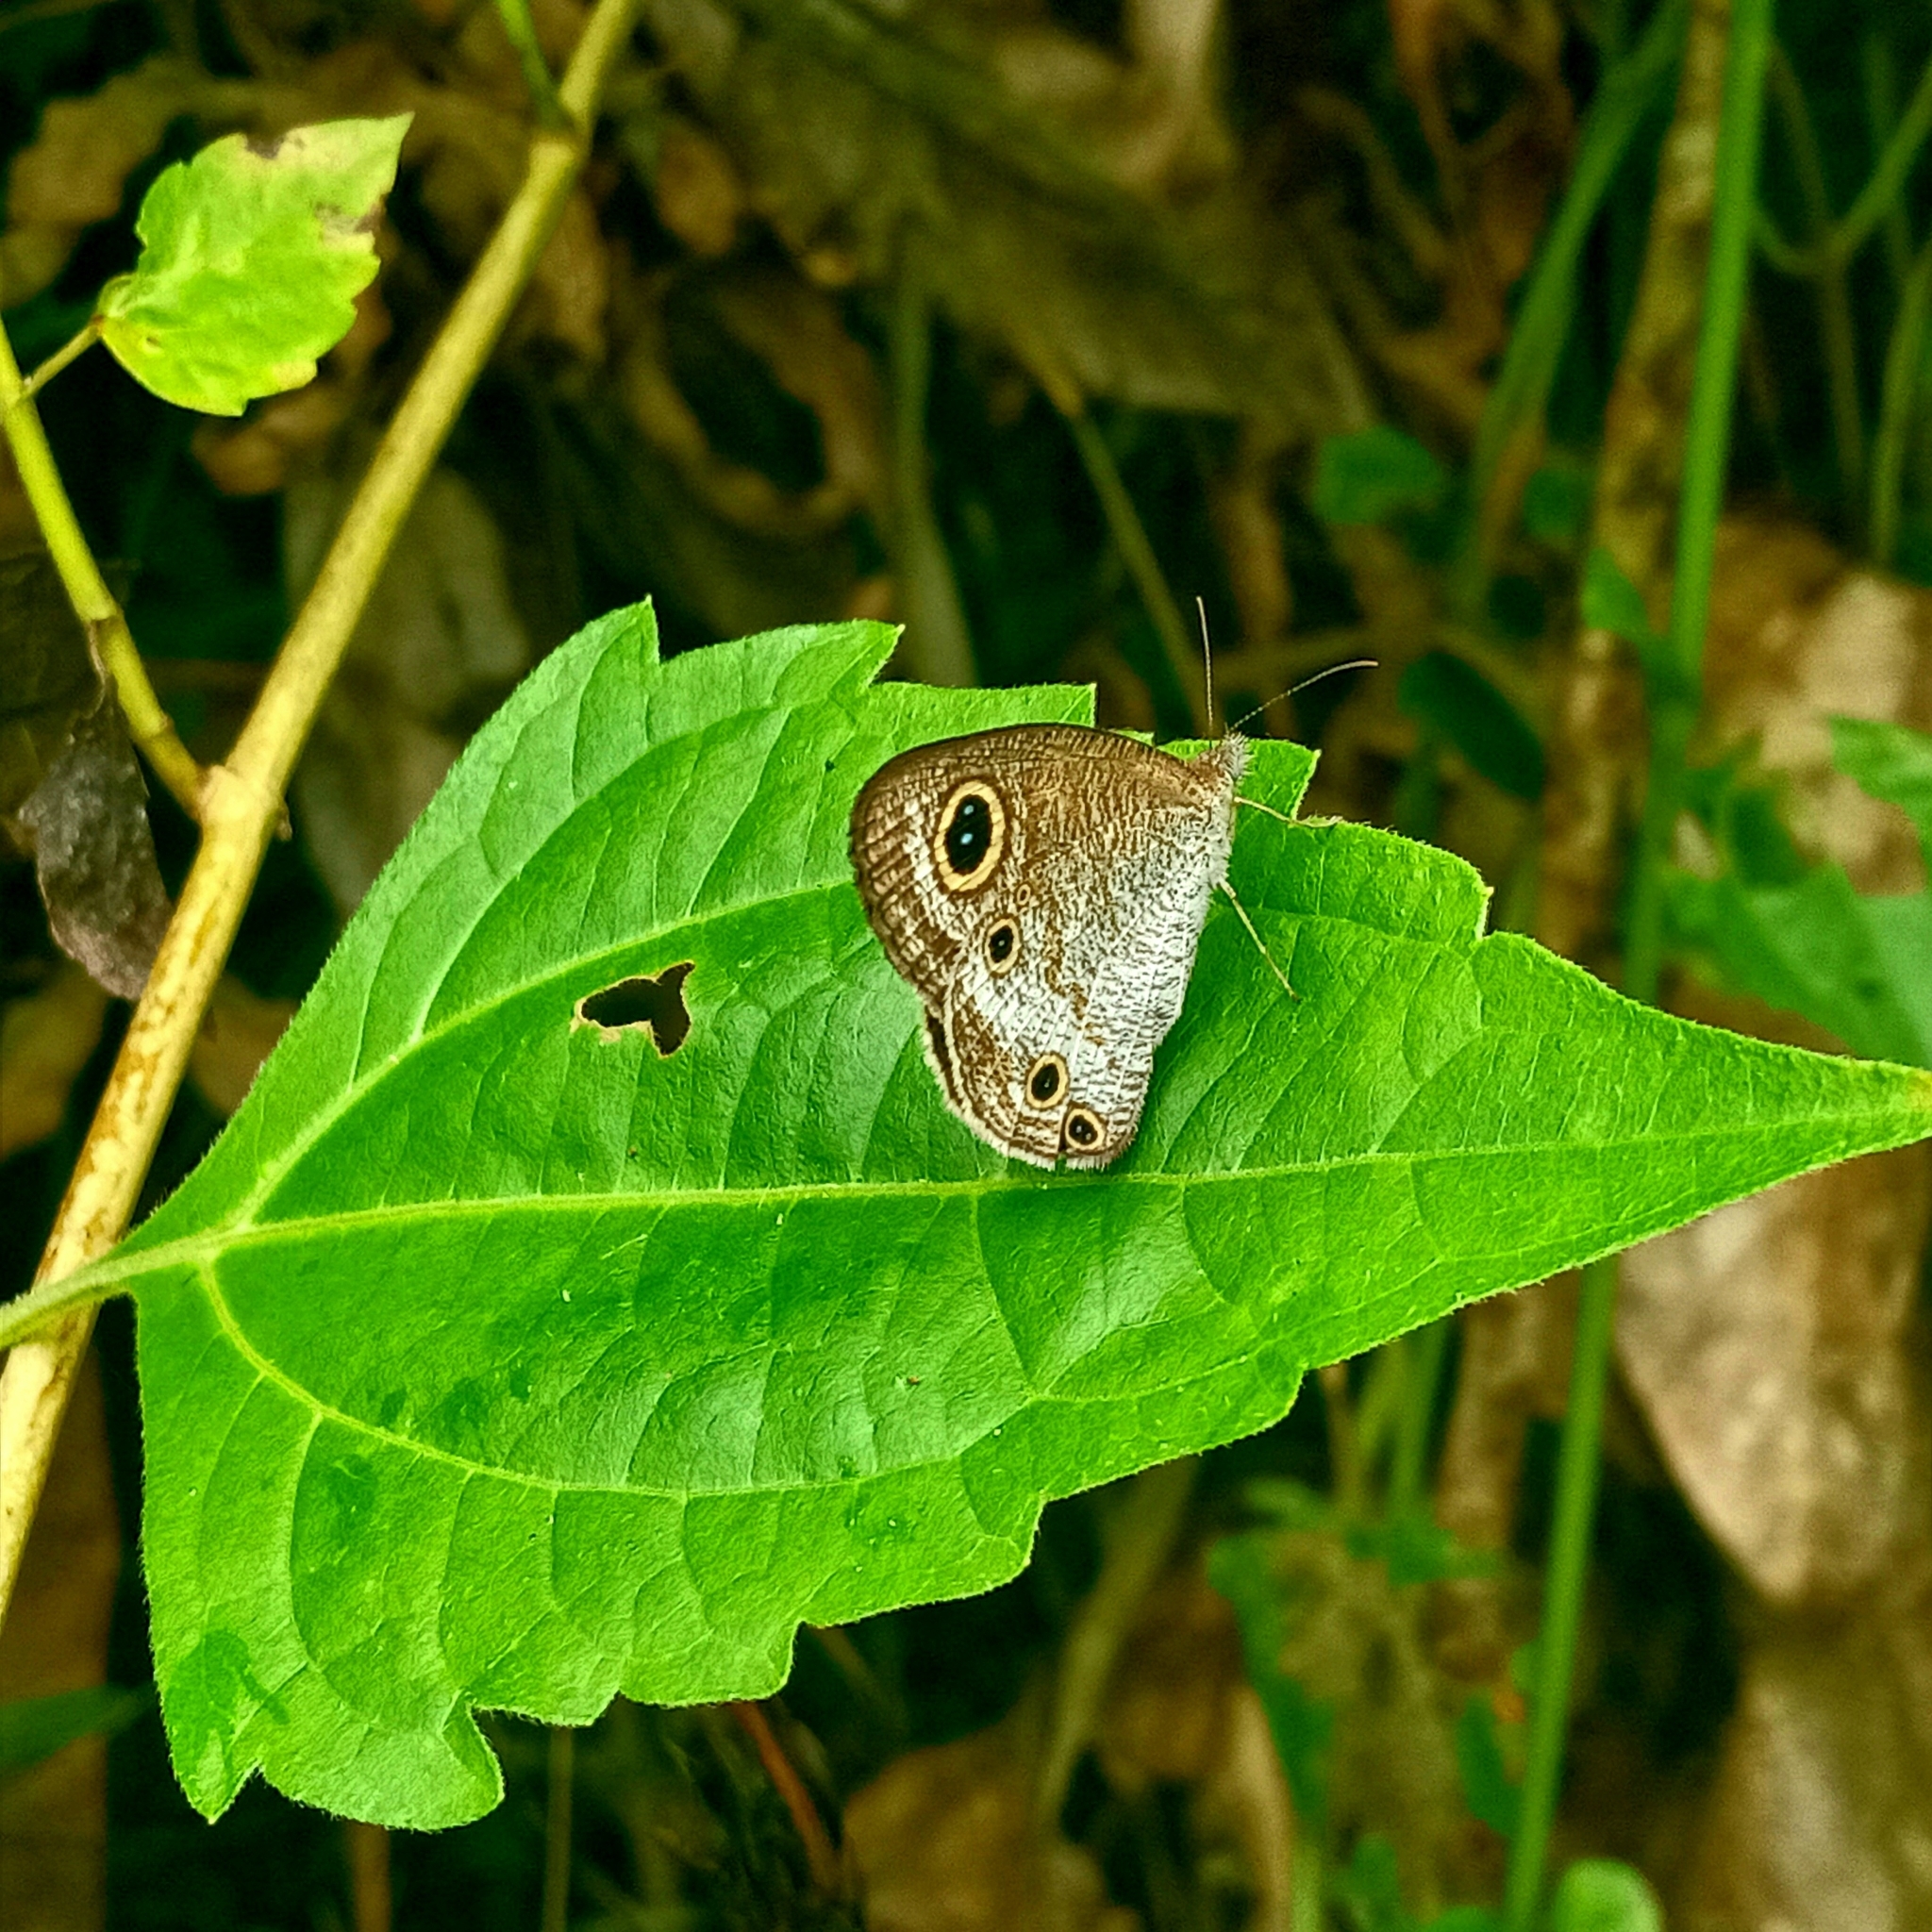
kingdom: Animalia
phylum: Arthropoda
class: Insecta
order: Lepidoptera
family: Nymphalidae
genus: Ypthima
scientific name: Ypthima pandocus
